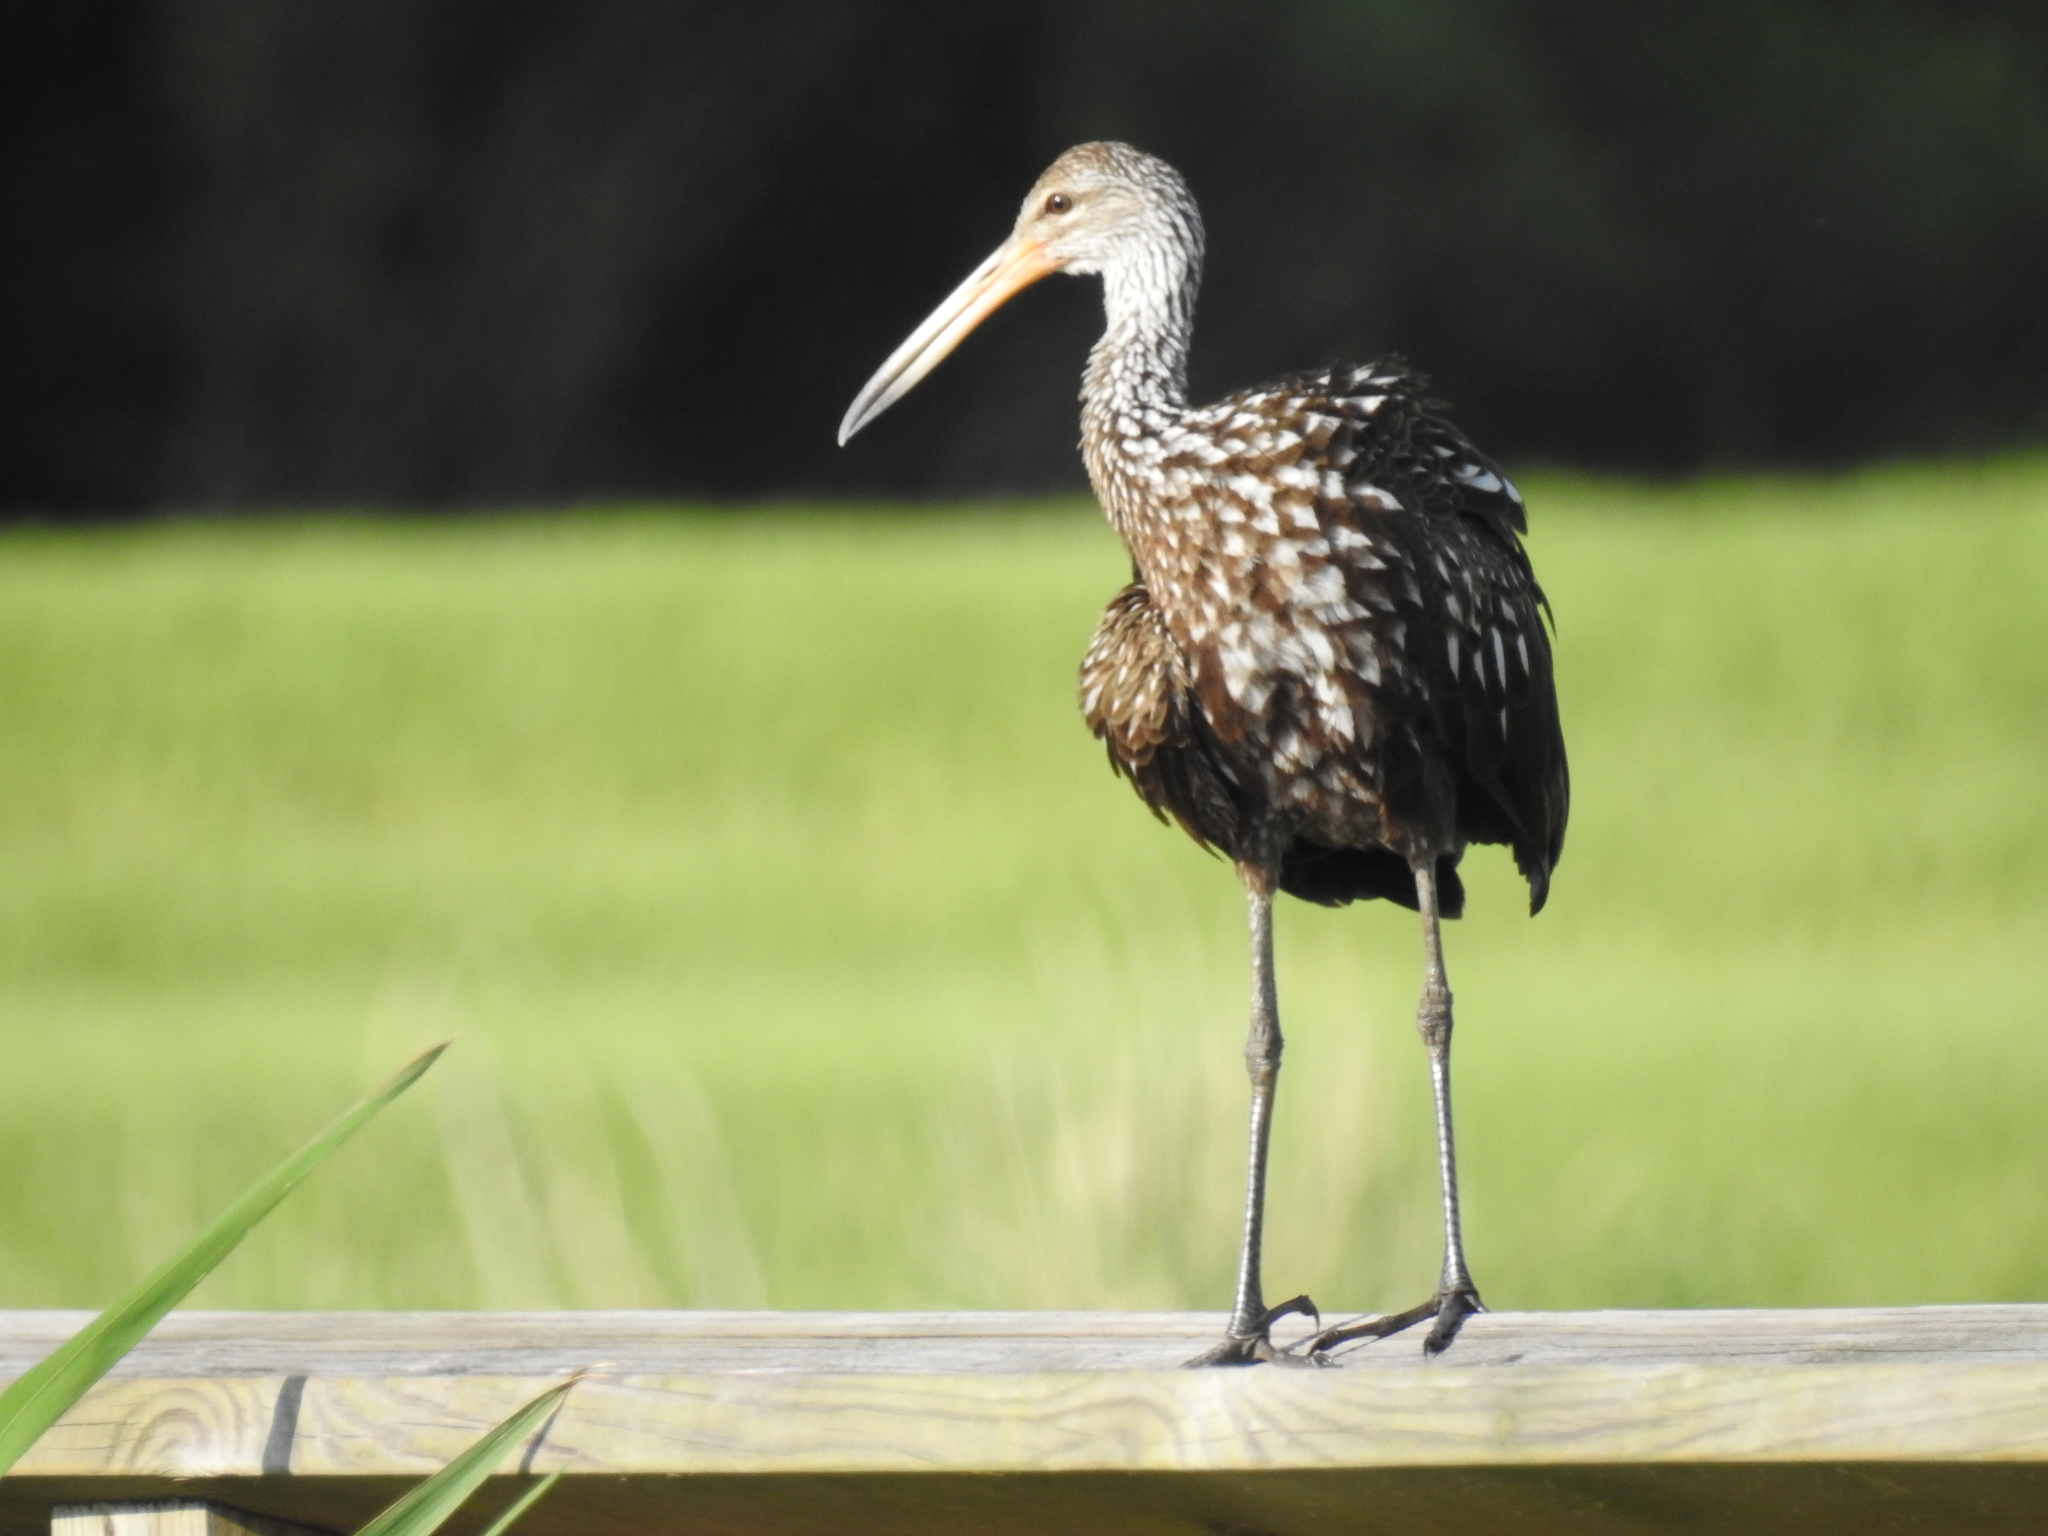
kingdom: Animalia
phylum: Chordata
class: Aves
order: Gruiformes
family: Aramidae
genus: Aramus
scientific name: Aramus guarauna
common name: Limpkin
